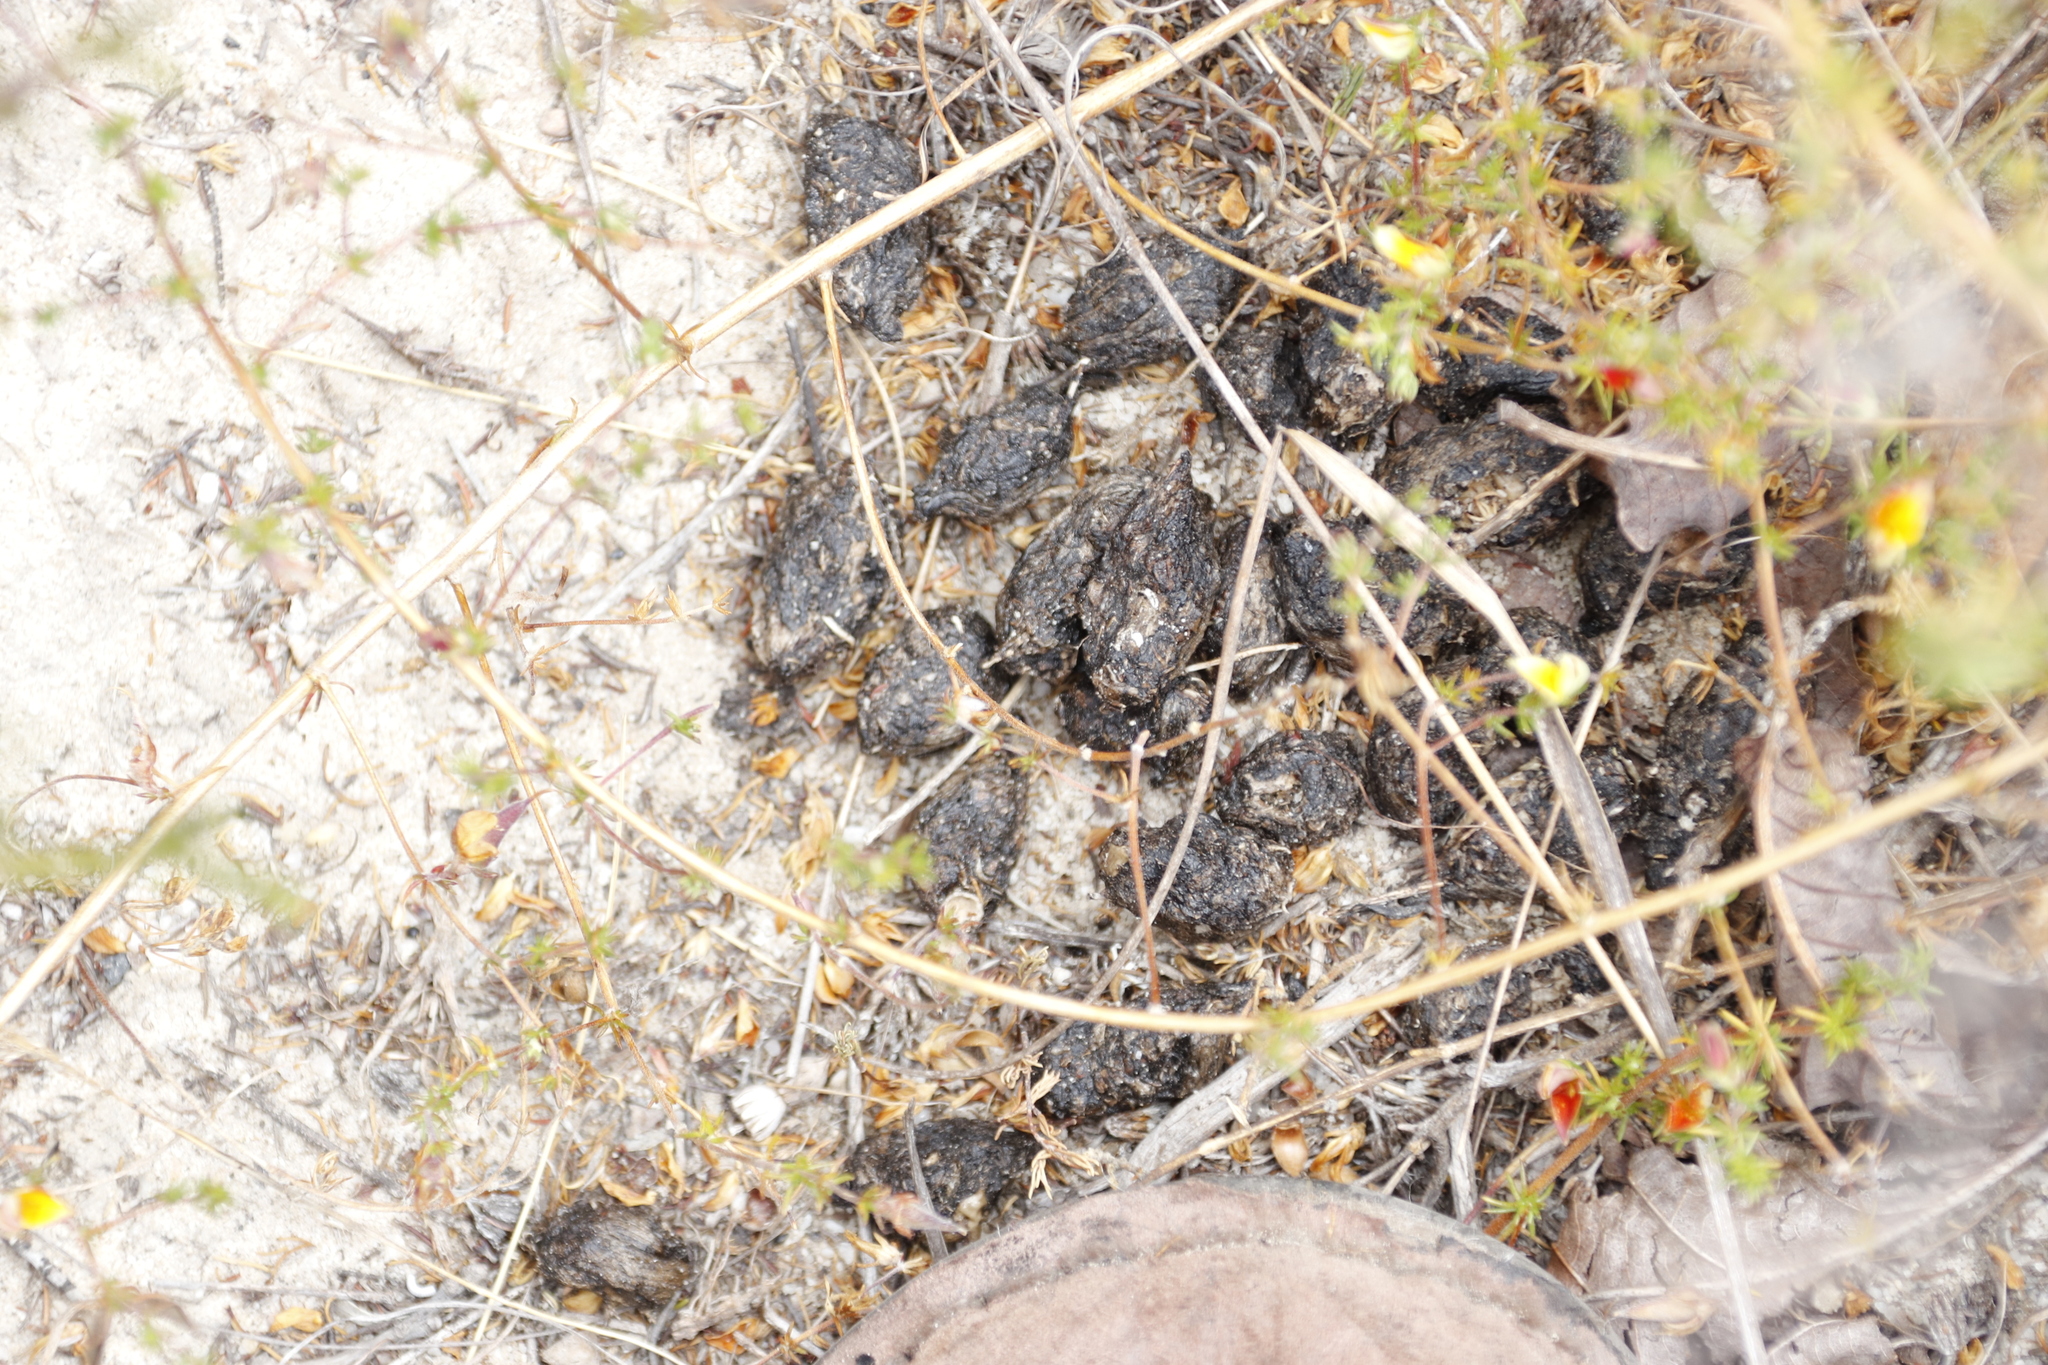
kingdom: Animalia
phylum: Chordata
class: Mammalia
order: Rodentia
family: Hystricidae
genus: Hystrix
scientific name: Hystrix africaeaustralis
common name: Cape porcupine
